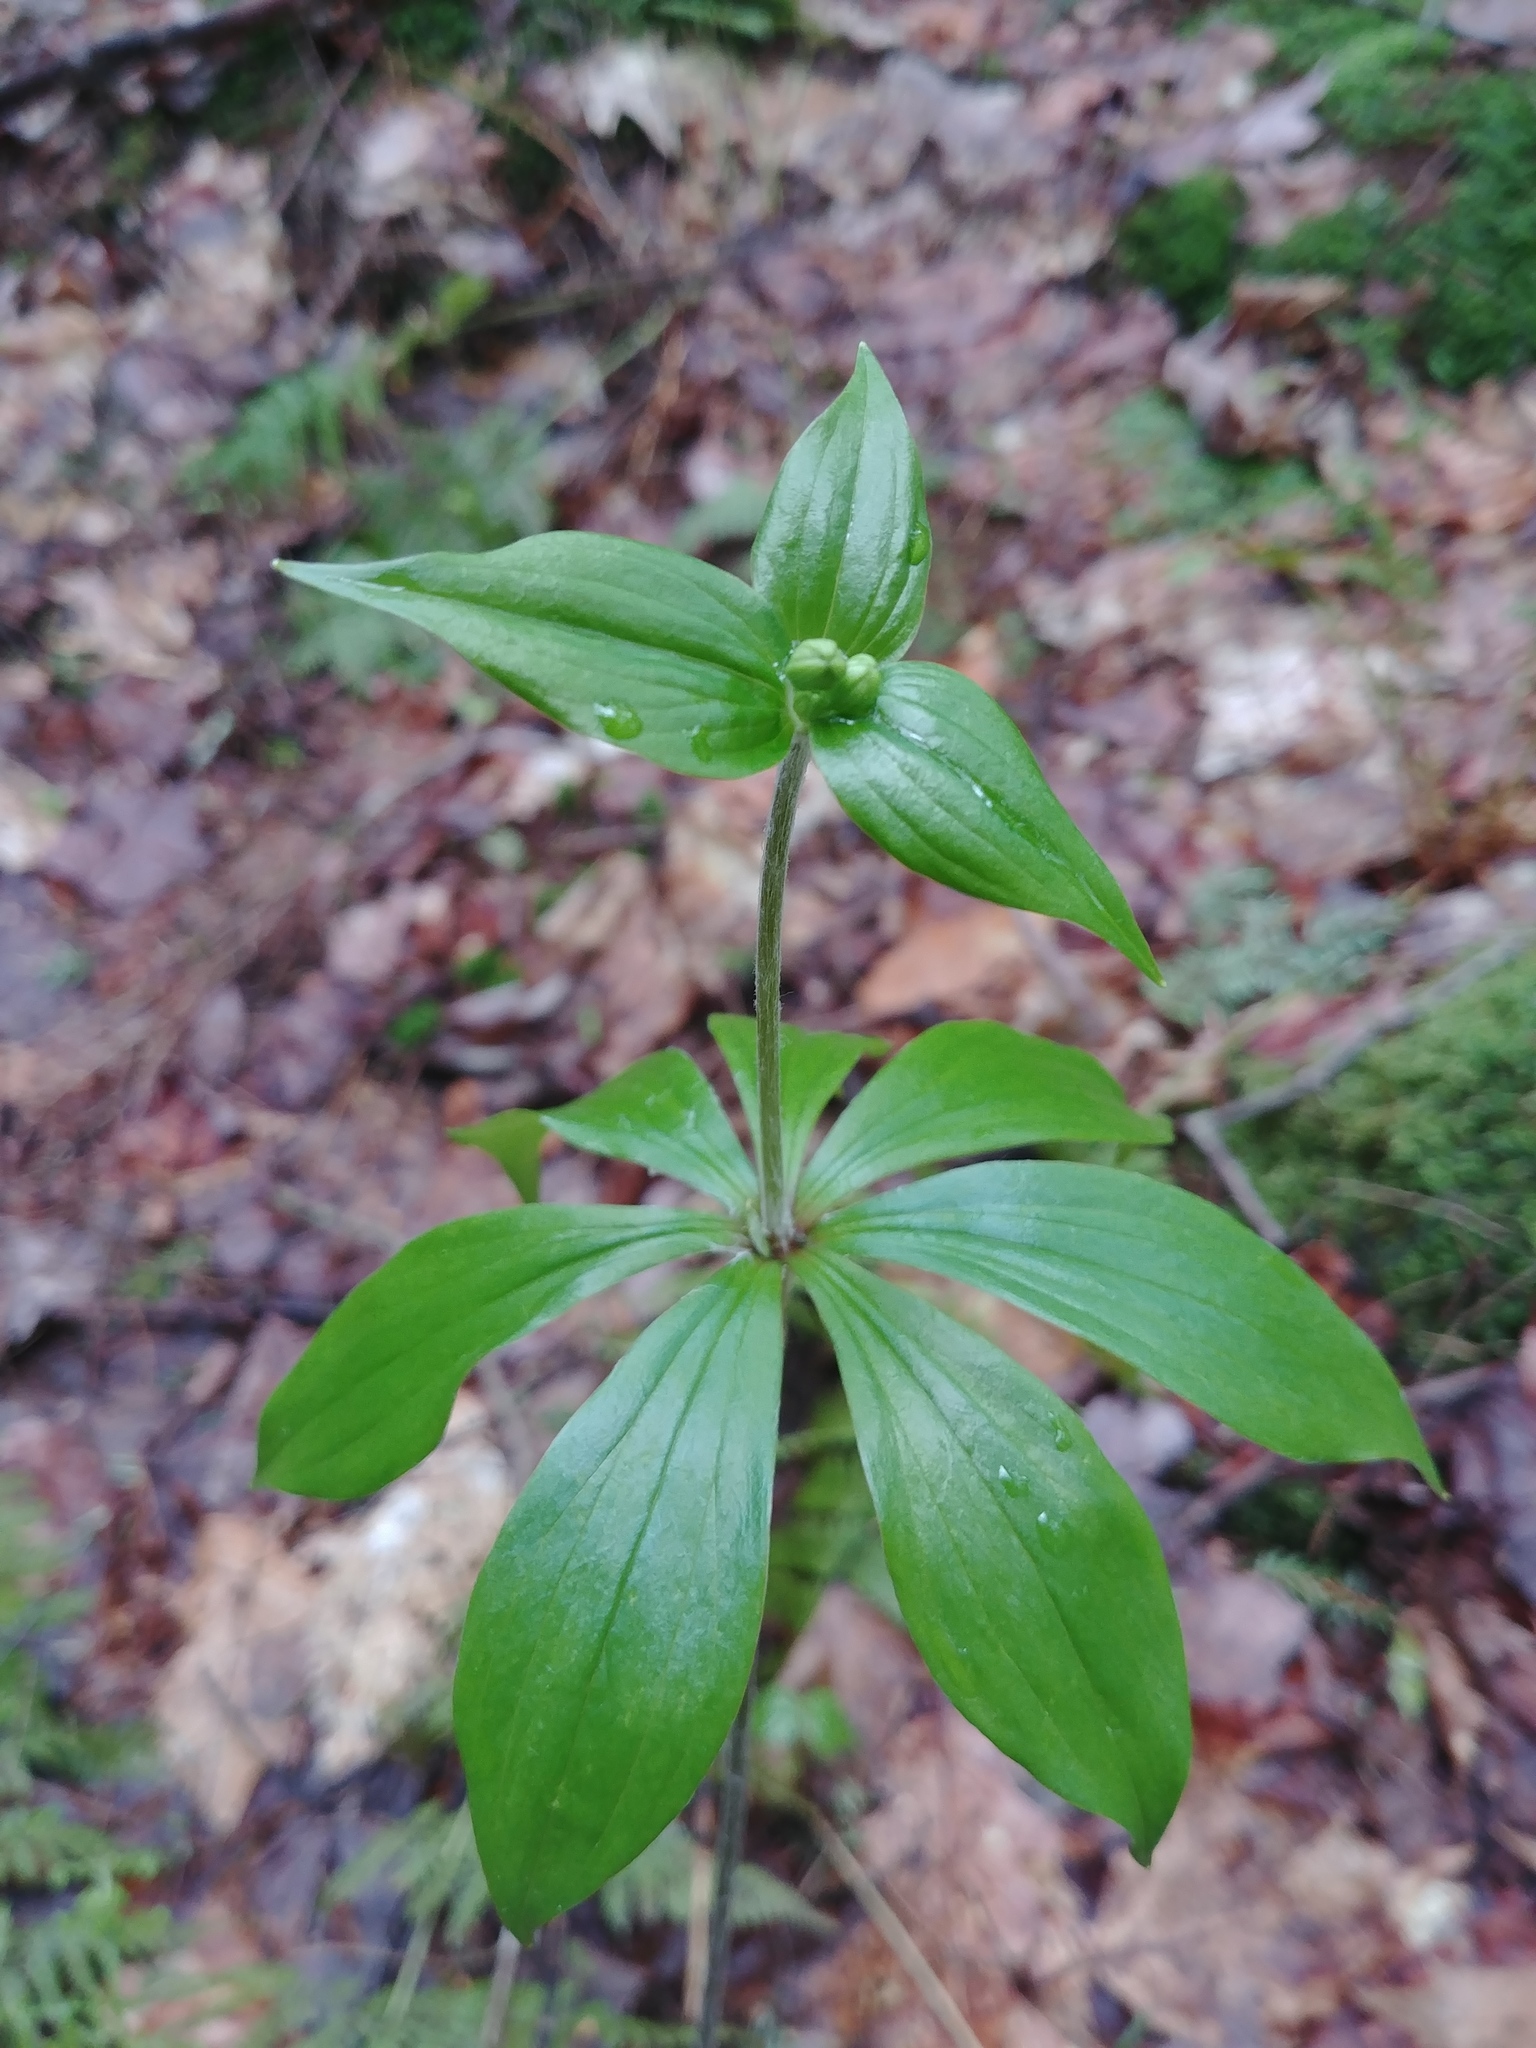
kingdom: Plantae
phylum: Tracheophyta
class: Liliopsida
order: Liliales
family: Liliaceae
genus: Medeola
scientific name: Medeola virginiana
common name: Indian cucumber-root
